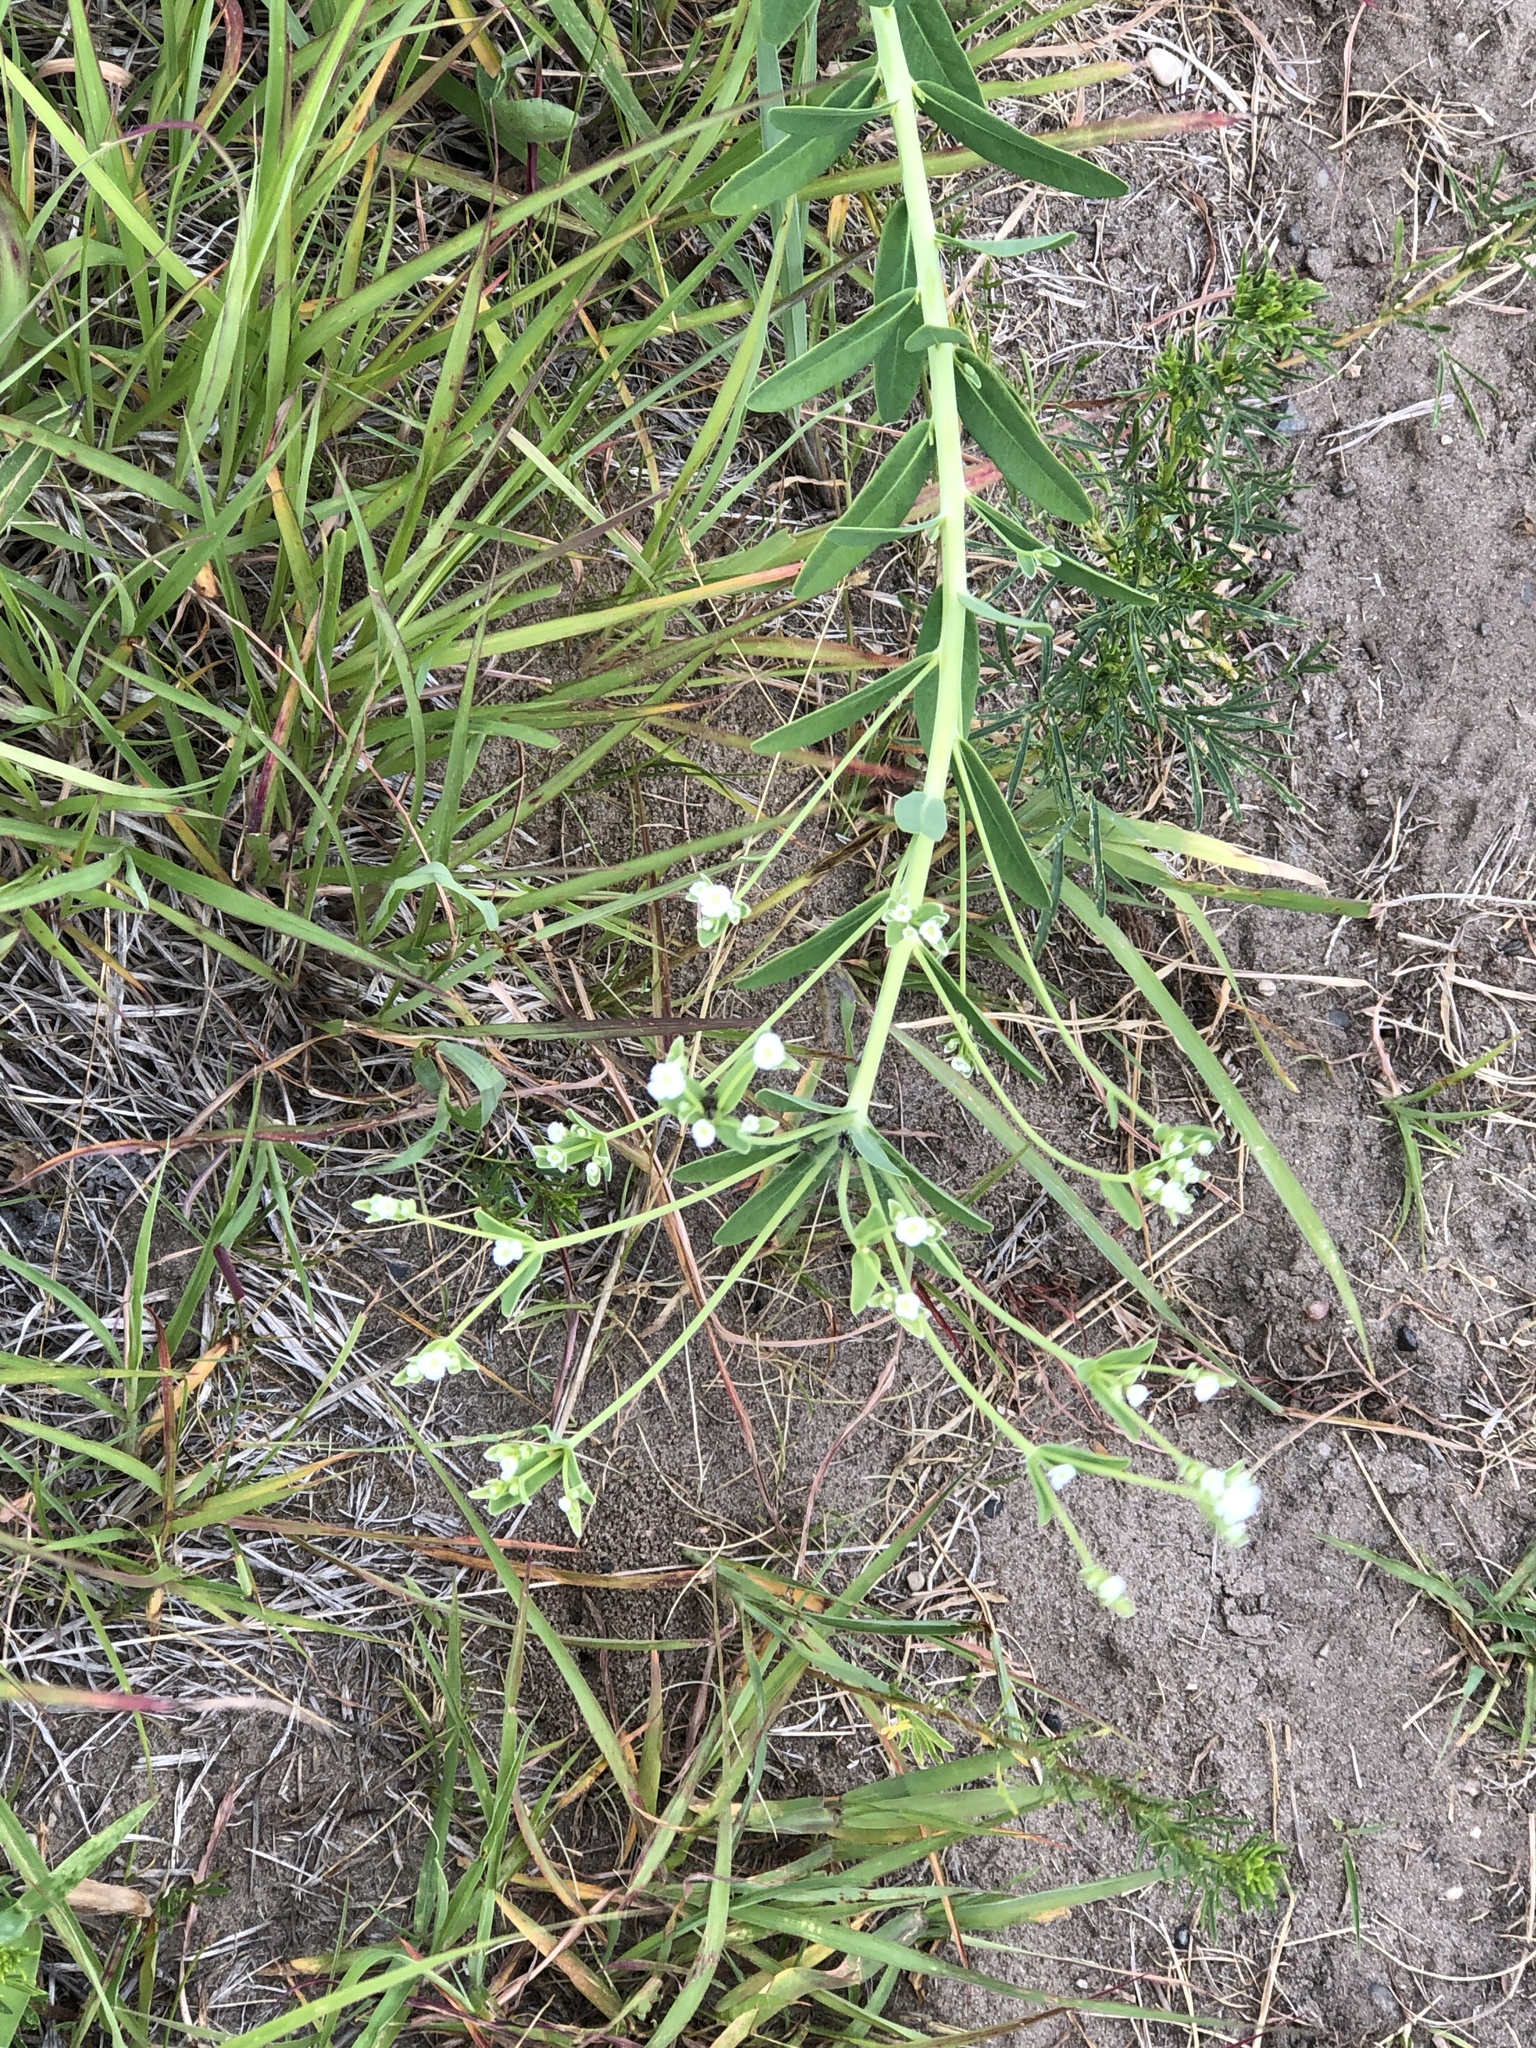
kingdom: Plantae
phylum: Tracheophyta
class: Magnoliopsida
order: Malpighiales
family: Euphorbiaceae
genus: Euphorbia
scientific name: Euphorbia corollata
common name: Flowering spurge
